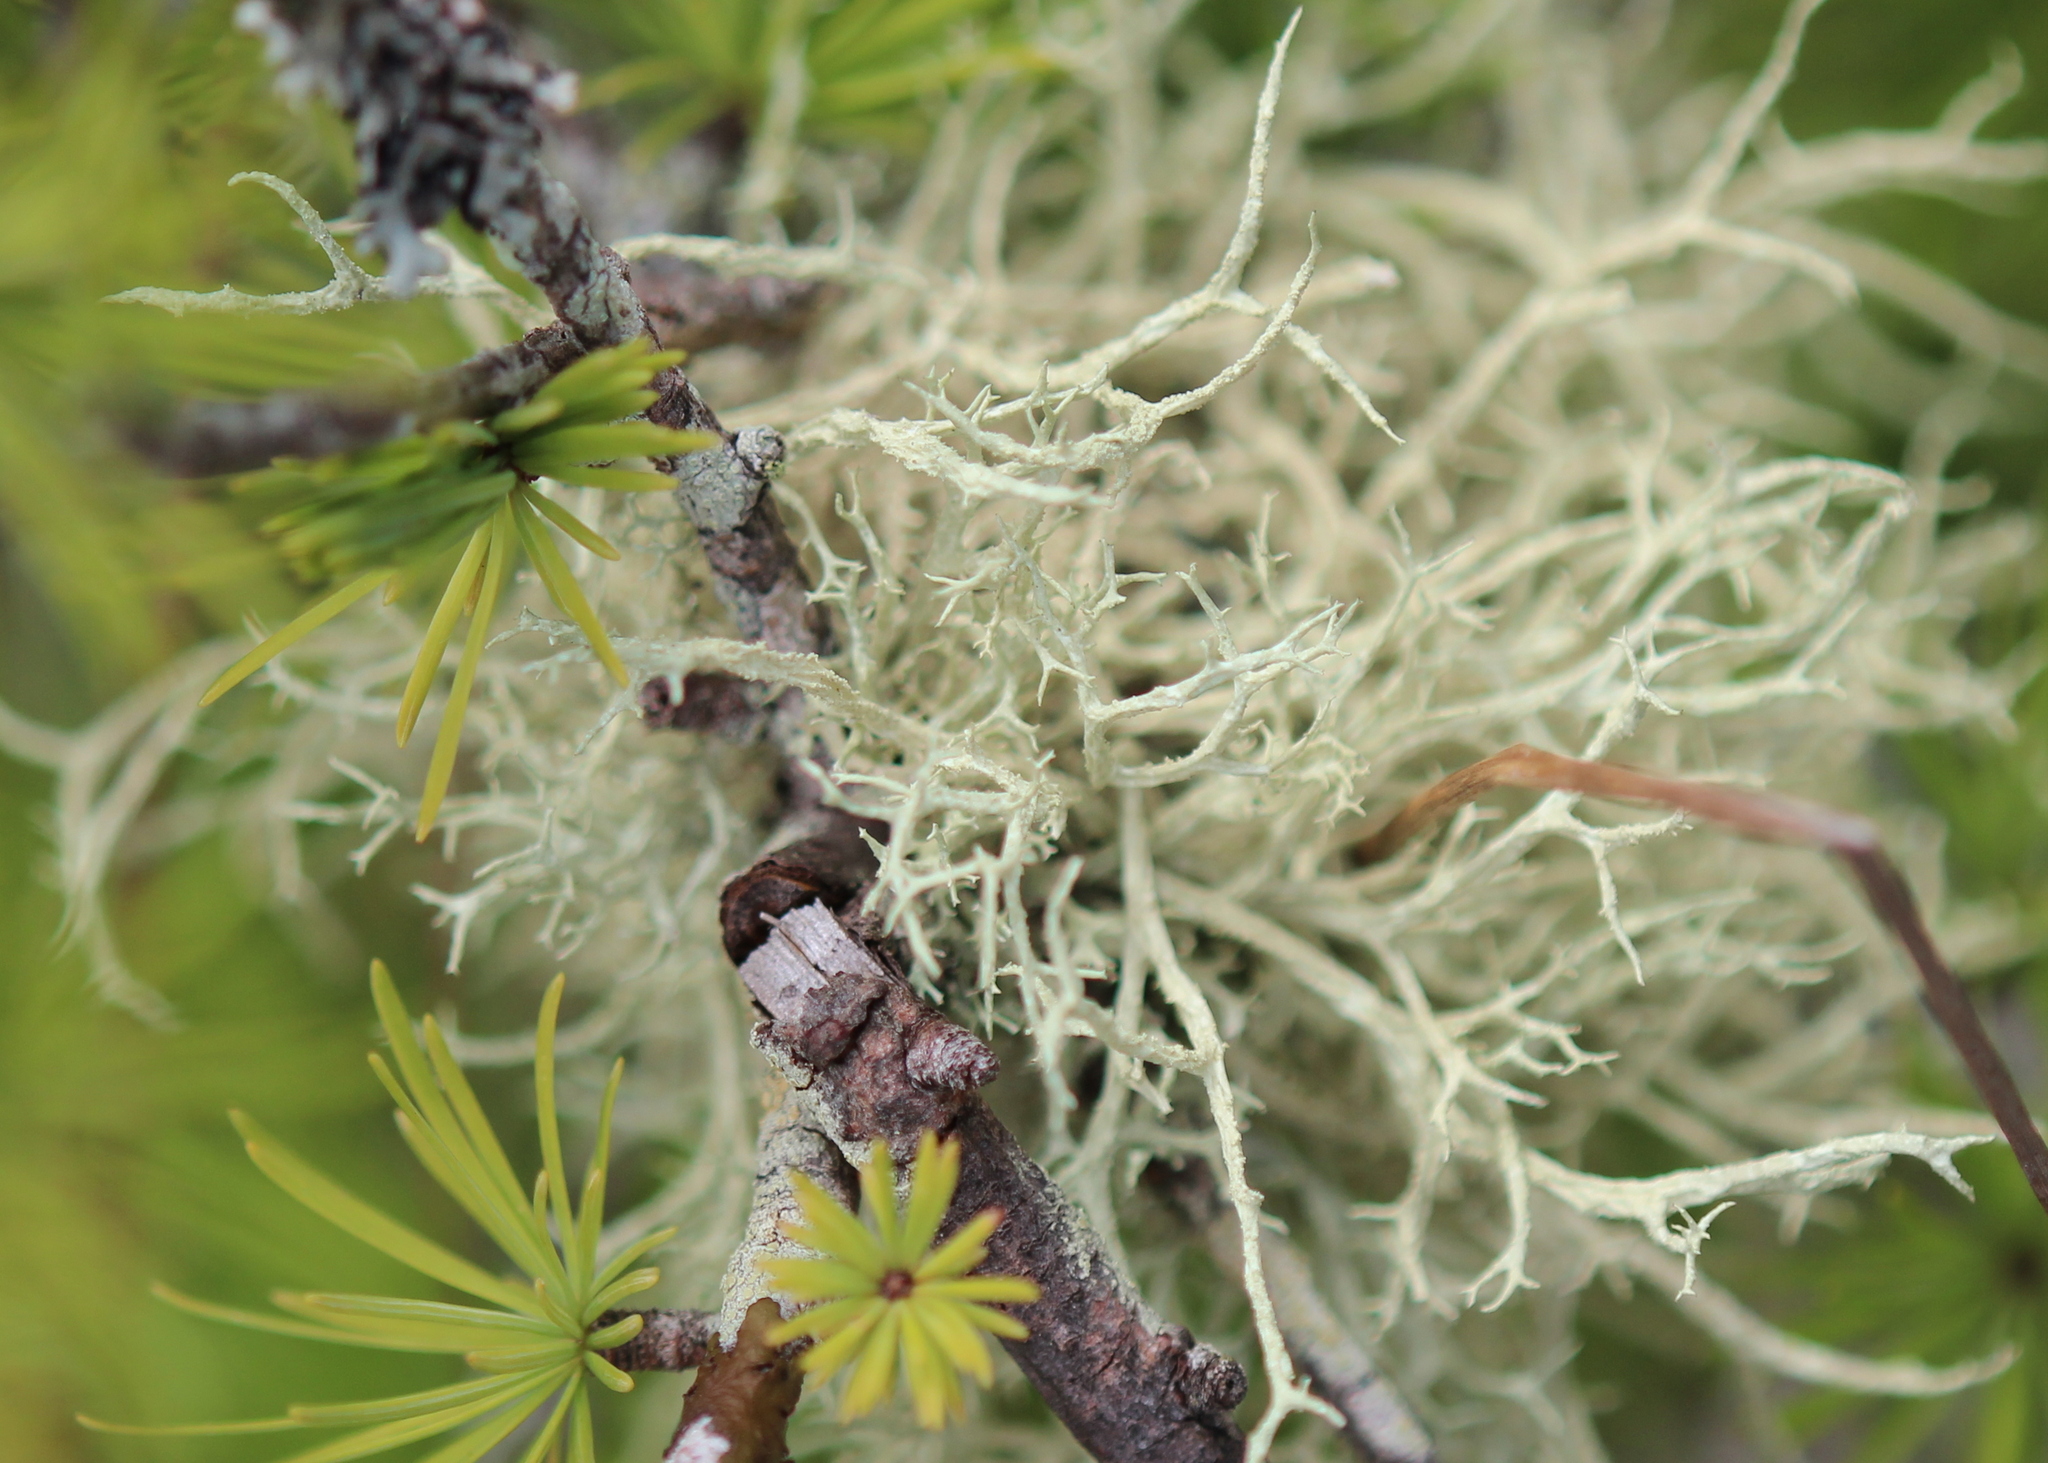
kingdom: Fungi
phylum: Ascomycota
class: Lecanoromycetes
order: Lecanorales
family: Parmeliaceae
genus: Evernia
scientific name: Evernia mesomorpha
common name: Boreal oak moss lichen
